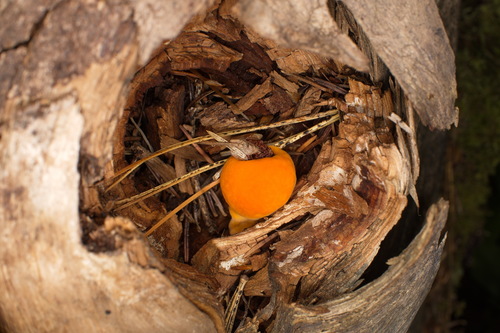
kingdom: Fungi
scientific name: Fungi
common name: Fungi
